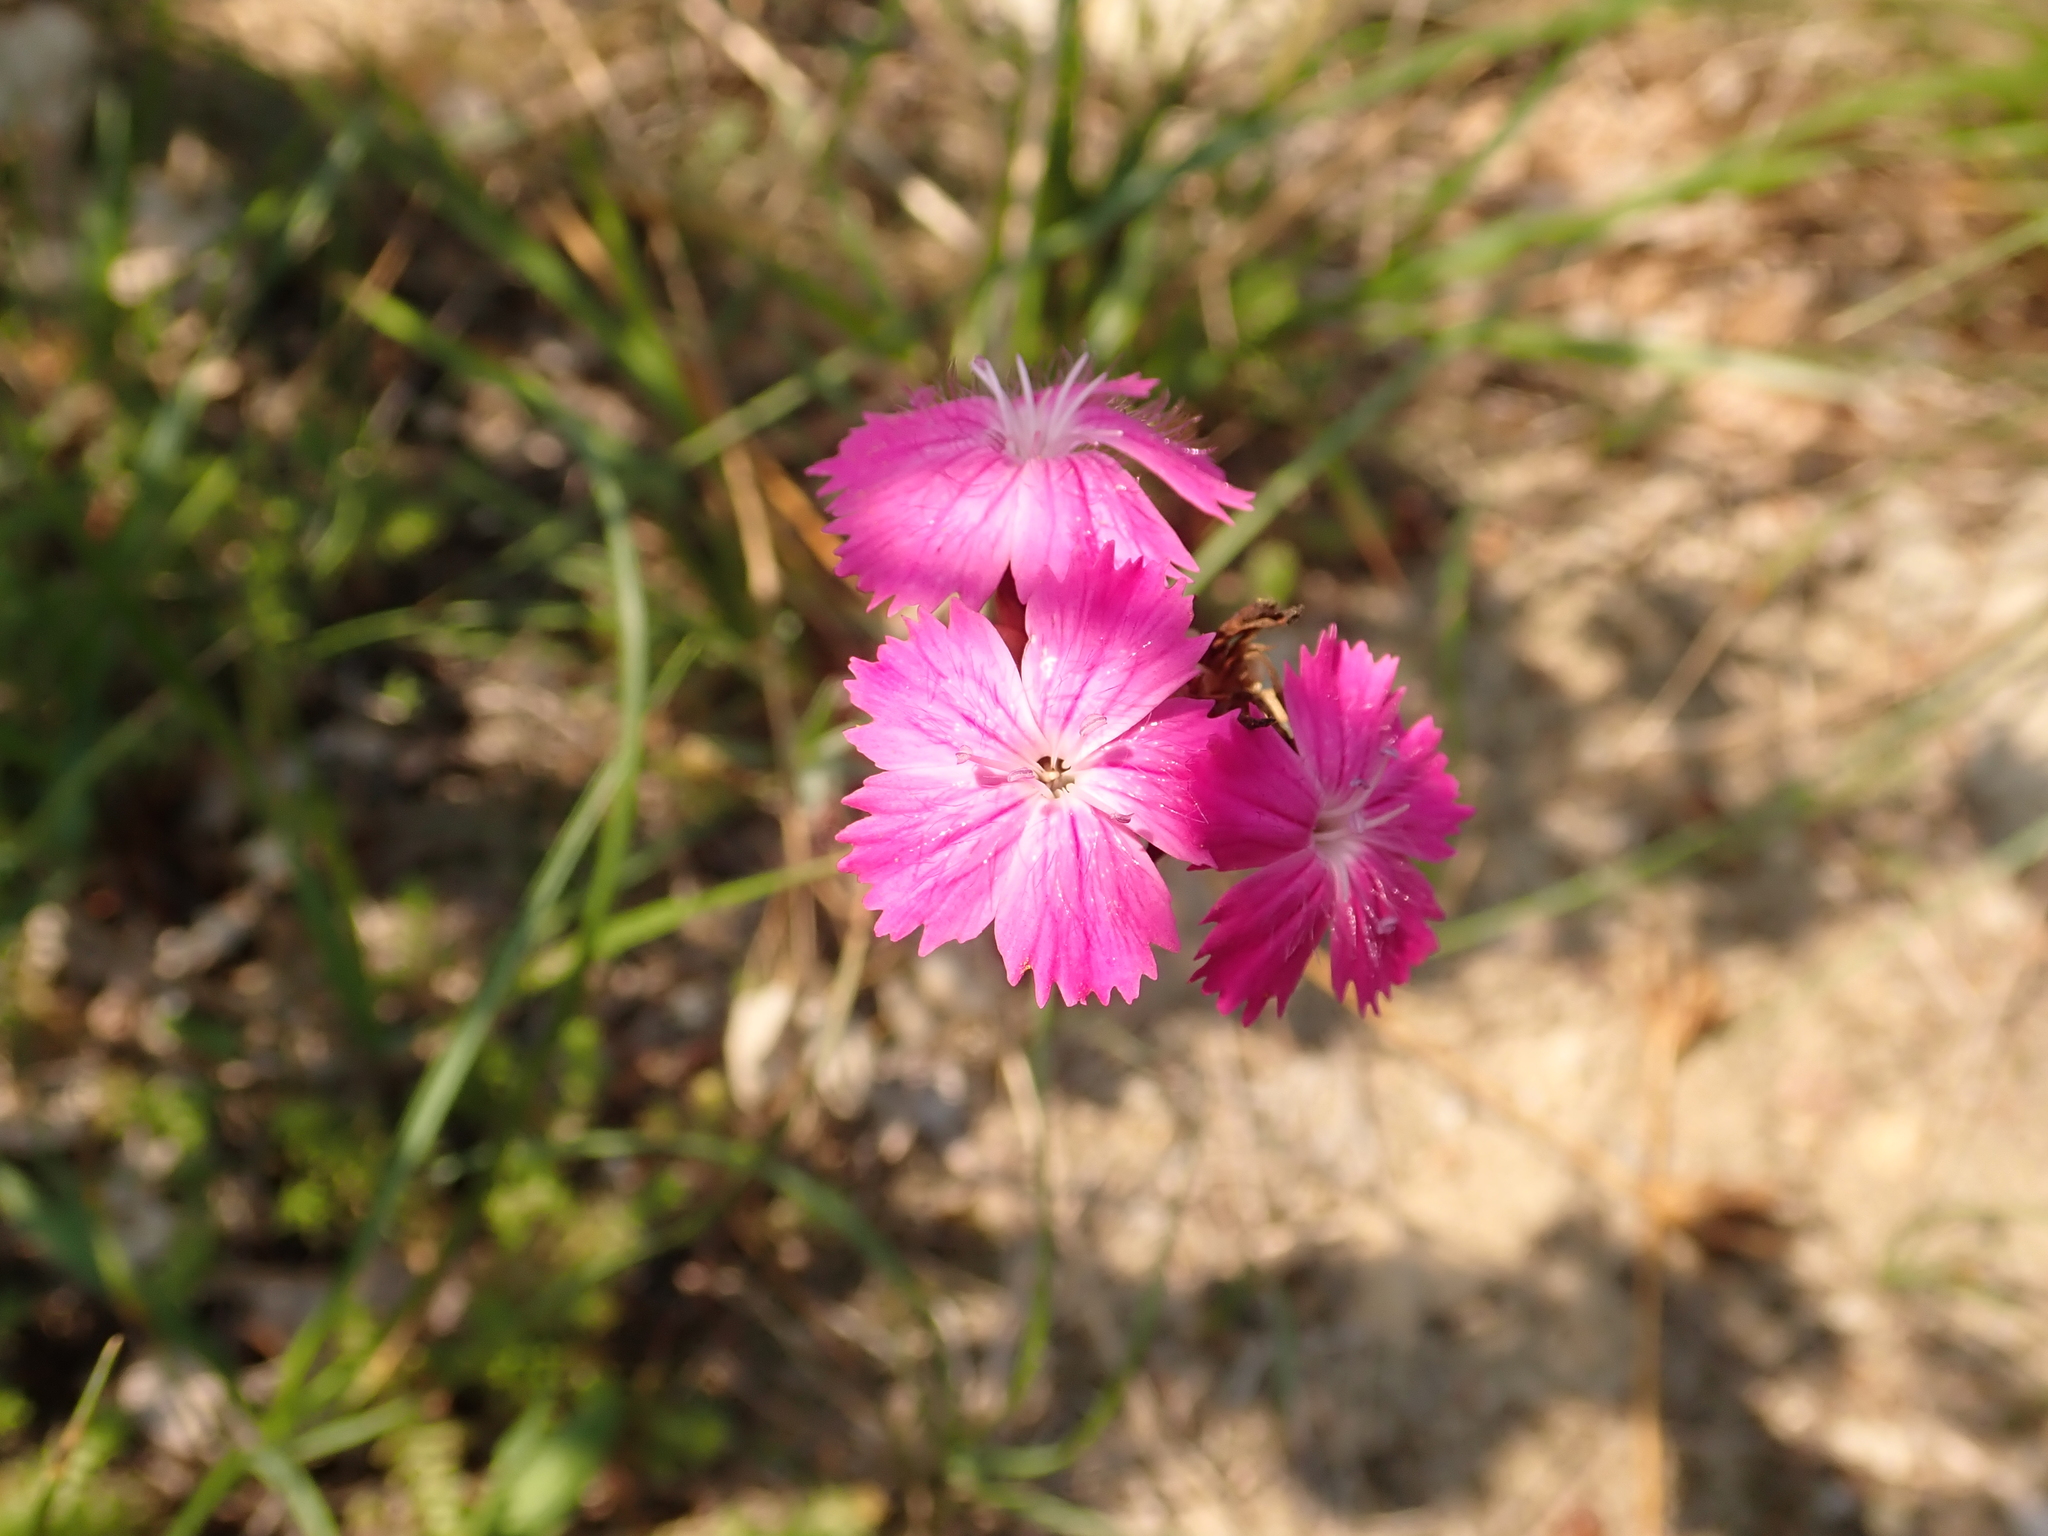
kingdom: Plantae
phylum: Tracheophyta
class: Magnoliopsida
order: Caryophyllales
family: Caryophyllaceae
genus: Dianthus
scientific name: Dianthus carthusianorum
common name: Carthusian pink
